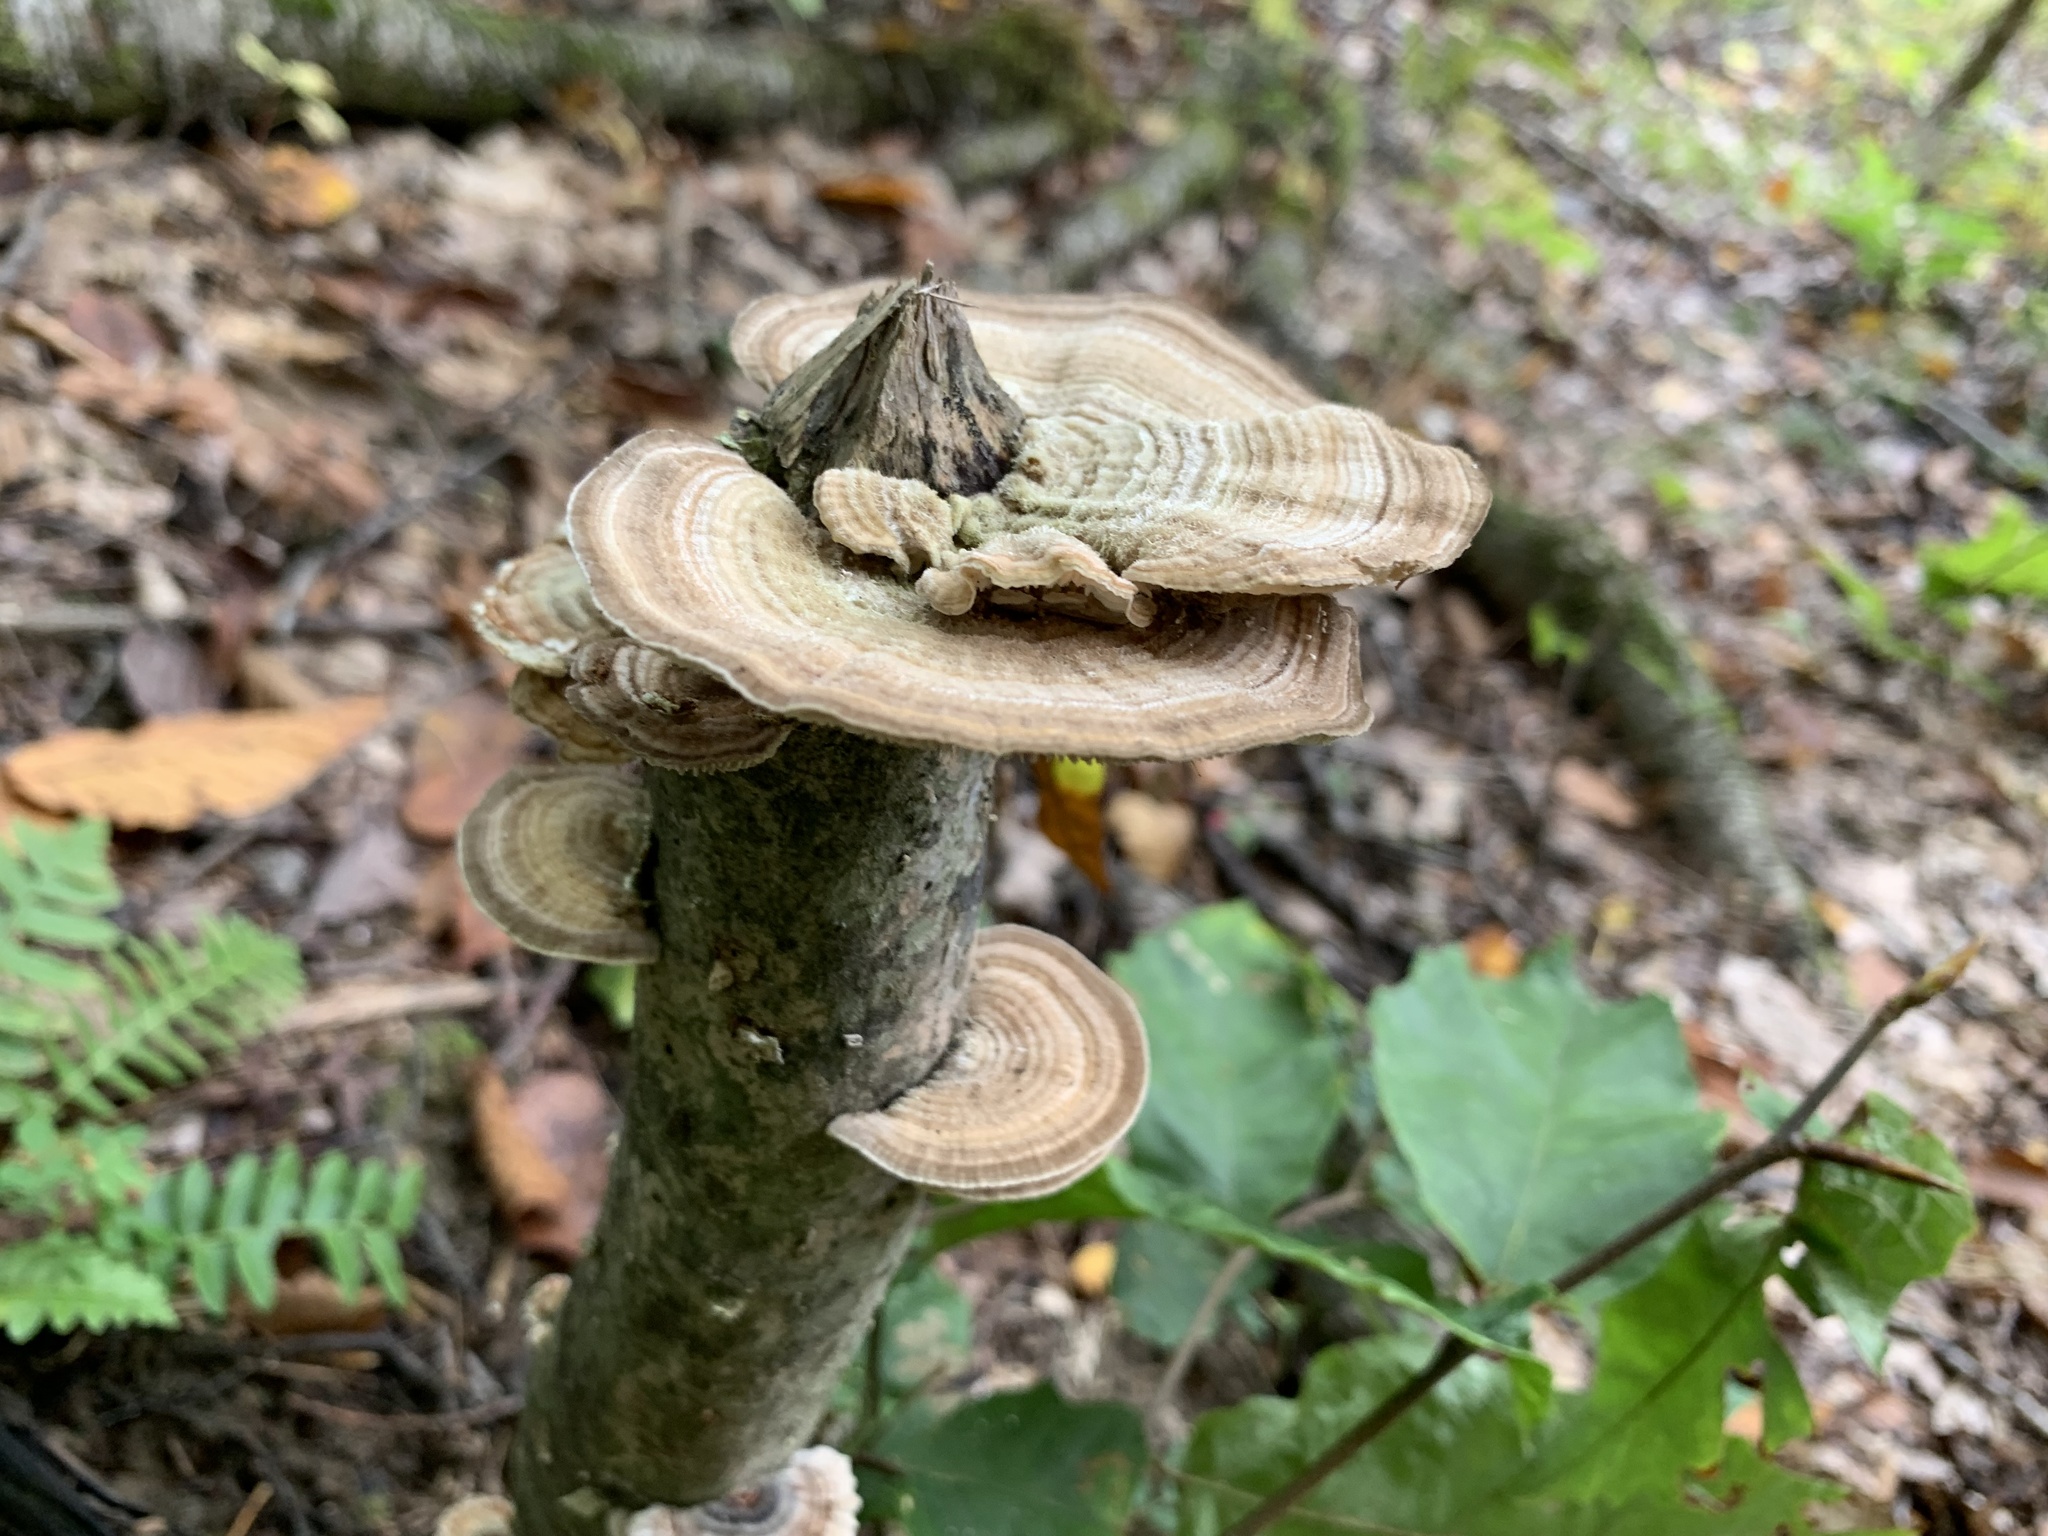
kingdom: Fungi
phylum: Basidiomycota
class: Agaricomycetes
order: Polyporales
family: Polyporaceae
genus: Lenzites
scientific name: Lenzites betulinus
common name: Birch mazegill
